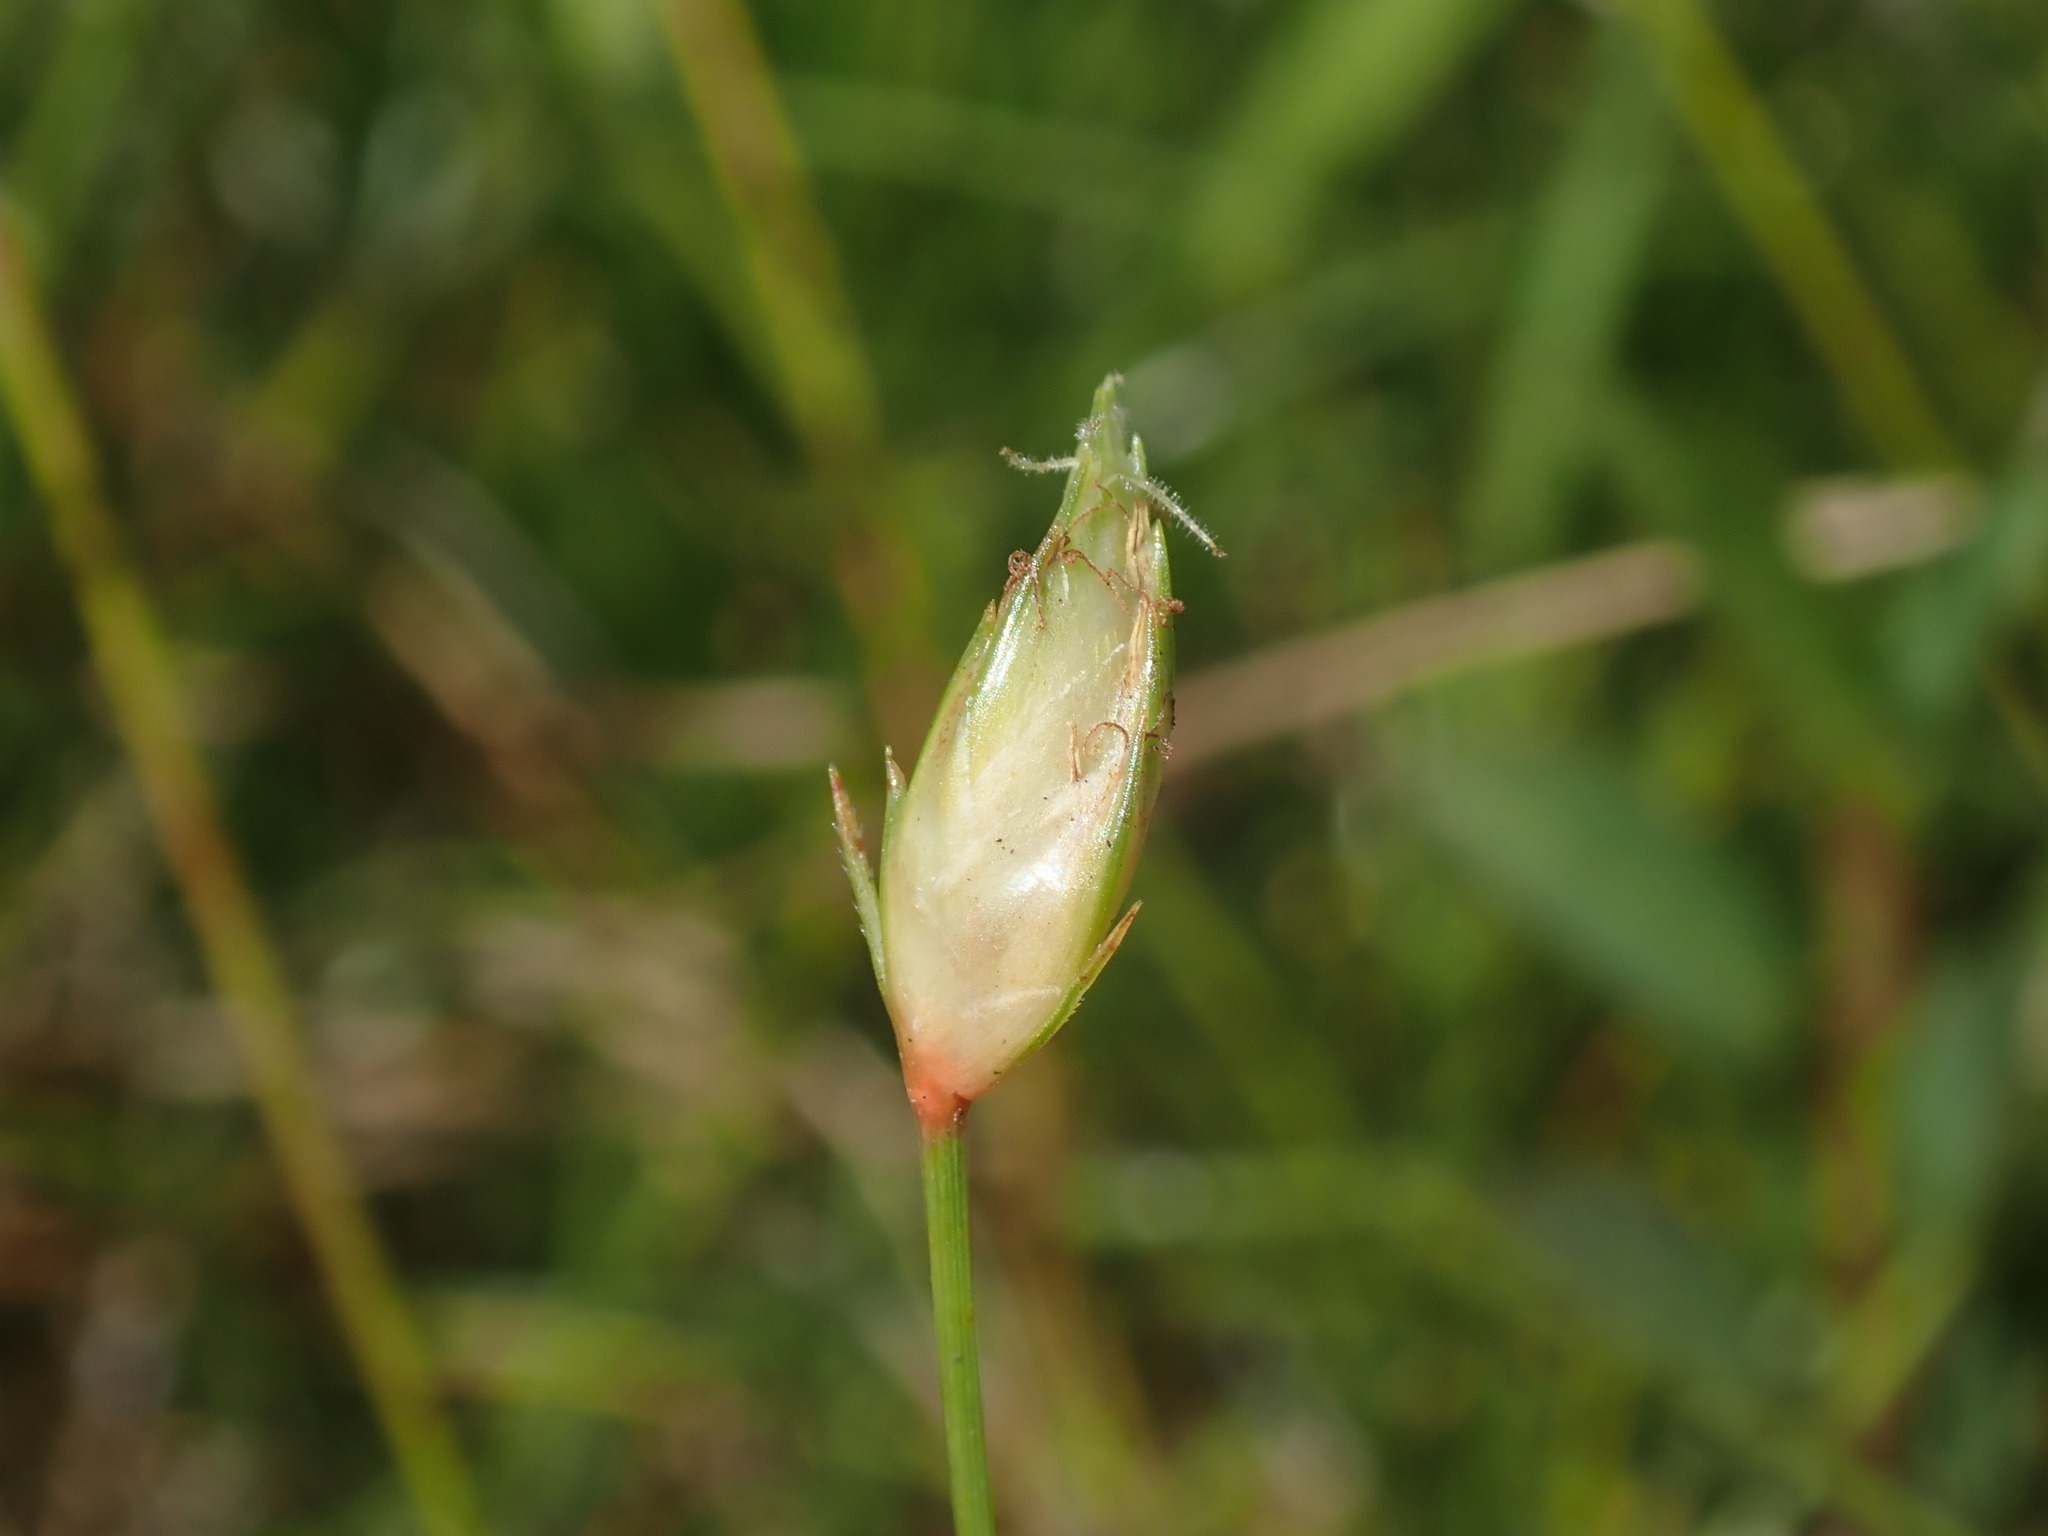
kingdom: Plantae
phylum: Tracheophyta
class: Liliopsida
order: Poales
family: Cyperaceae
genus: Abildgaardia
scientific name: Abildgaardia ovata
